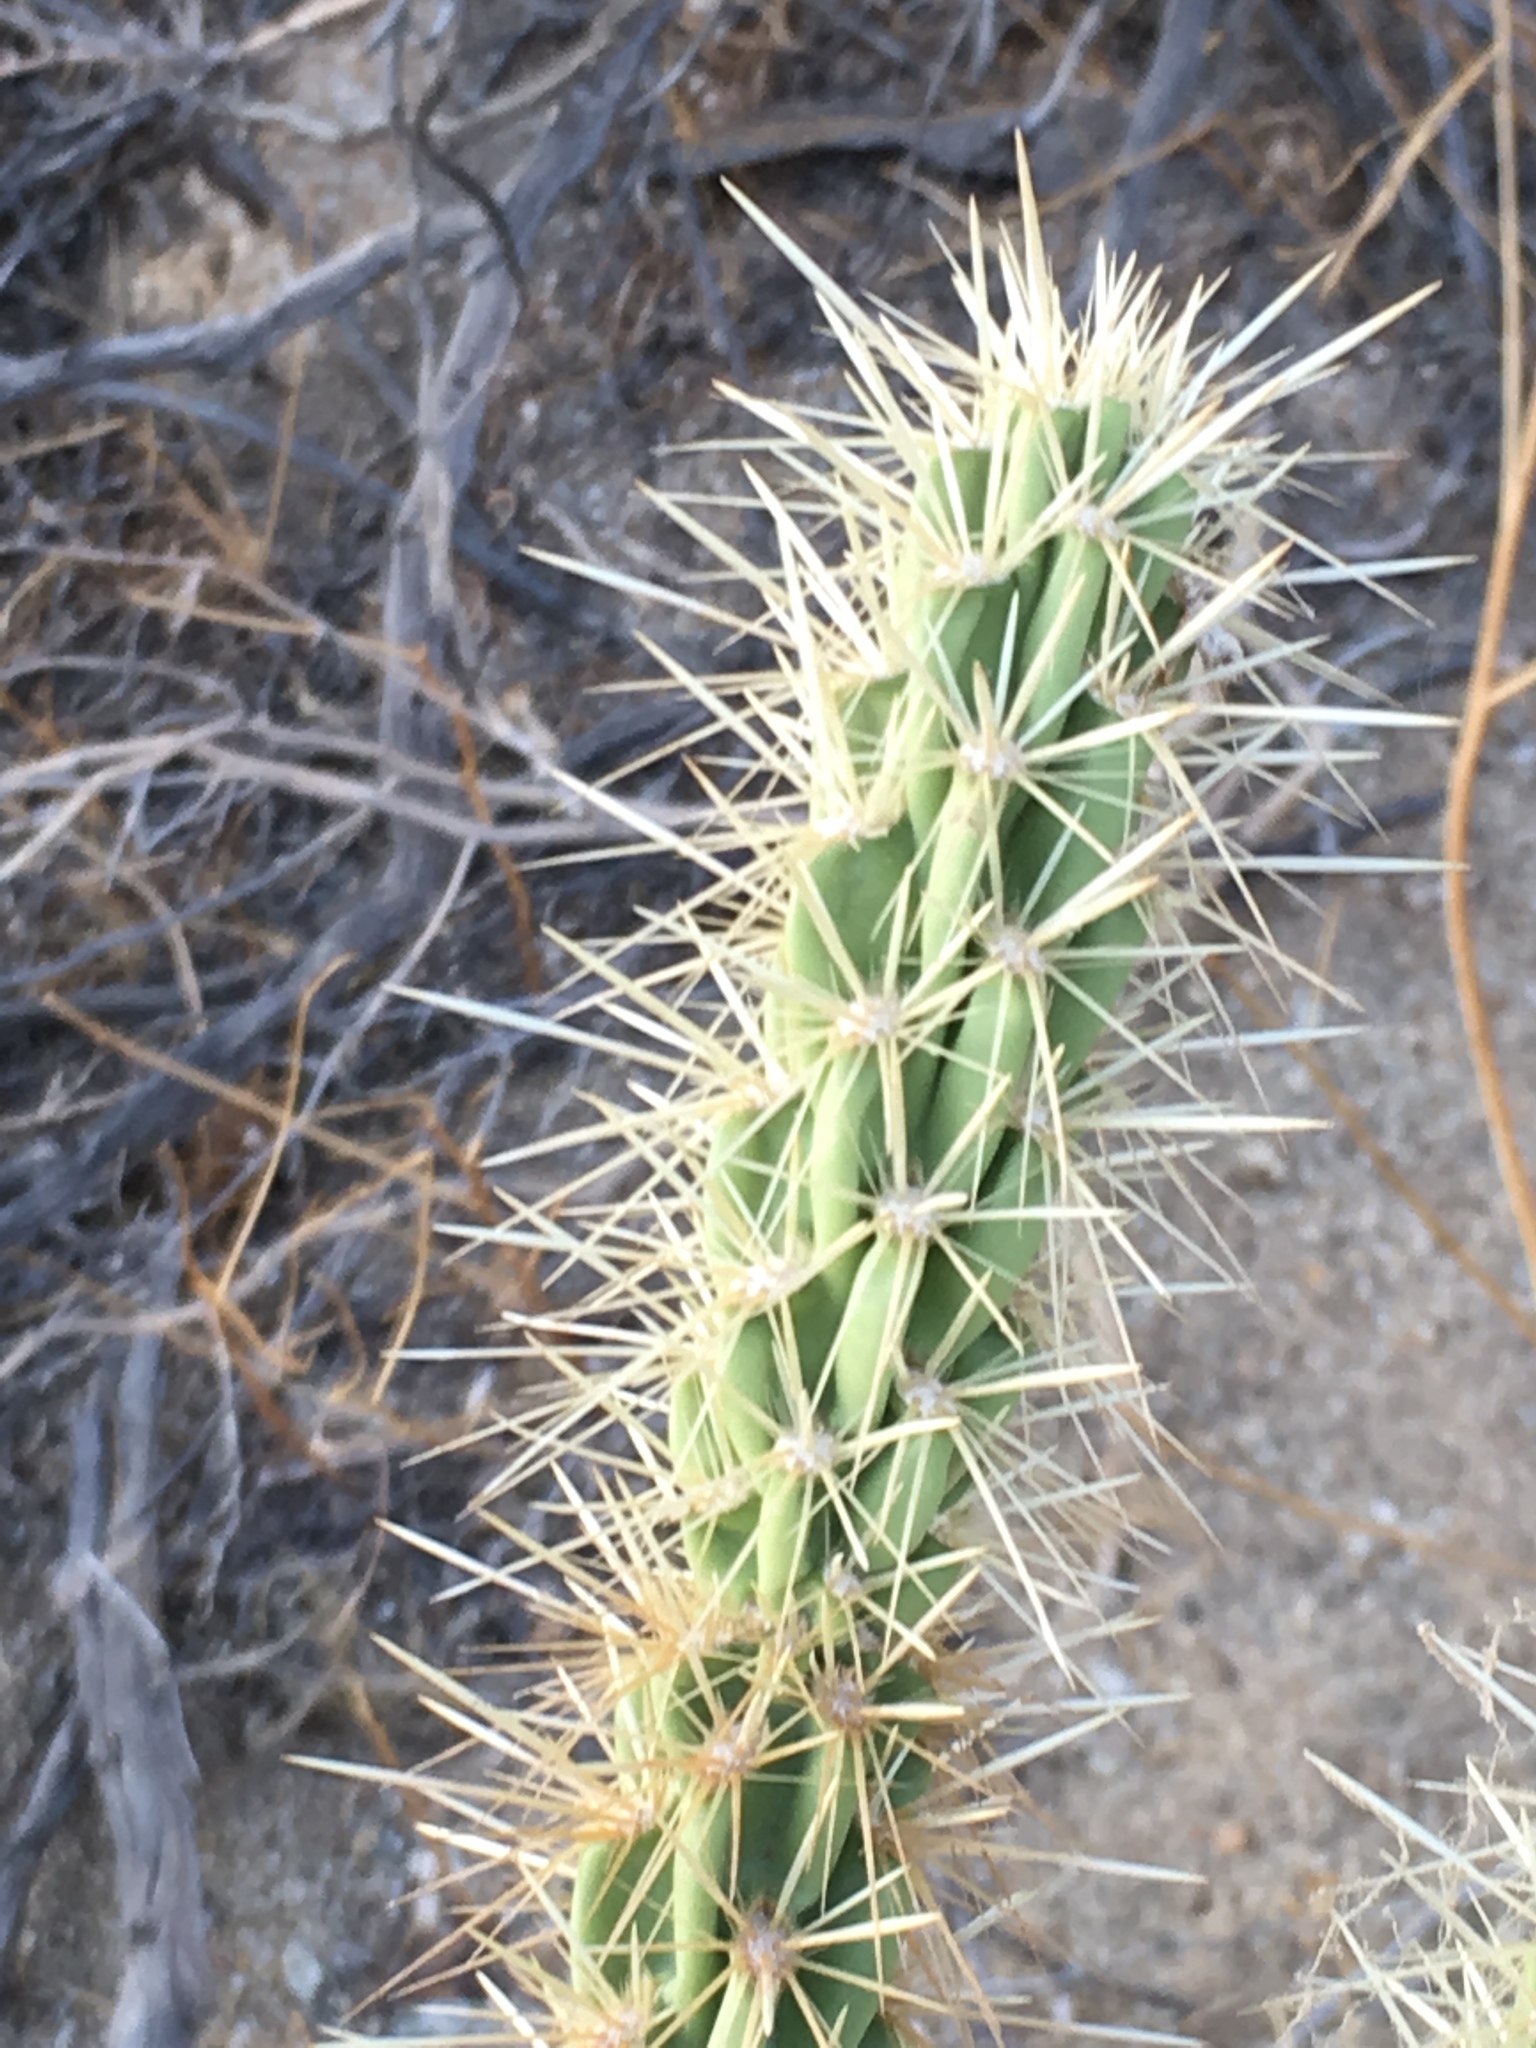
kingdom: Plantae
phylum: Tracheophyta
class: Magnoliopsida
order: Caryophyllales
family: Cactaceae
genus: Cylindropuntia
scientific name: Cylindropuntia ganderi
